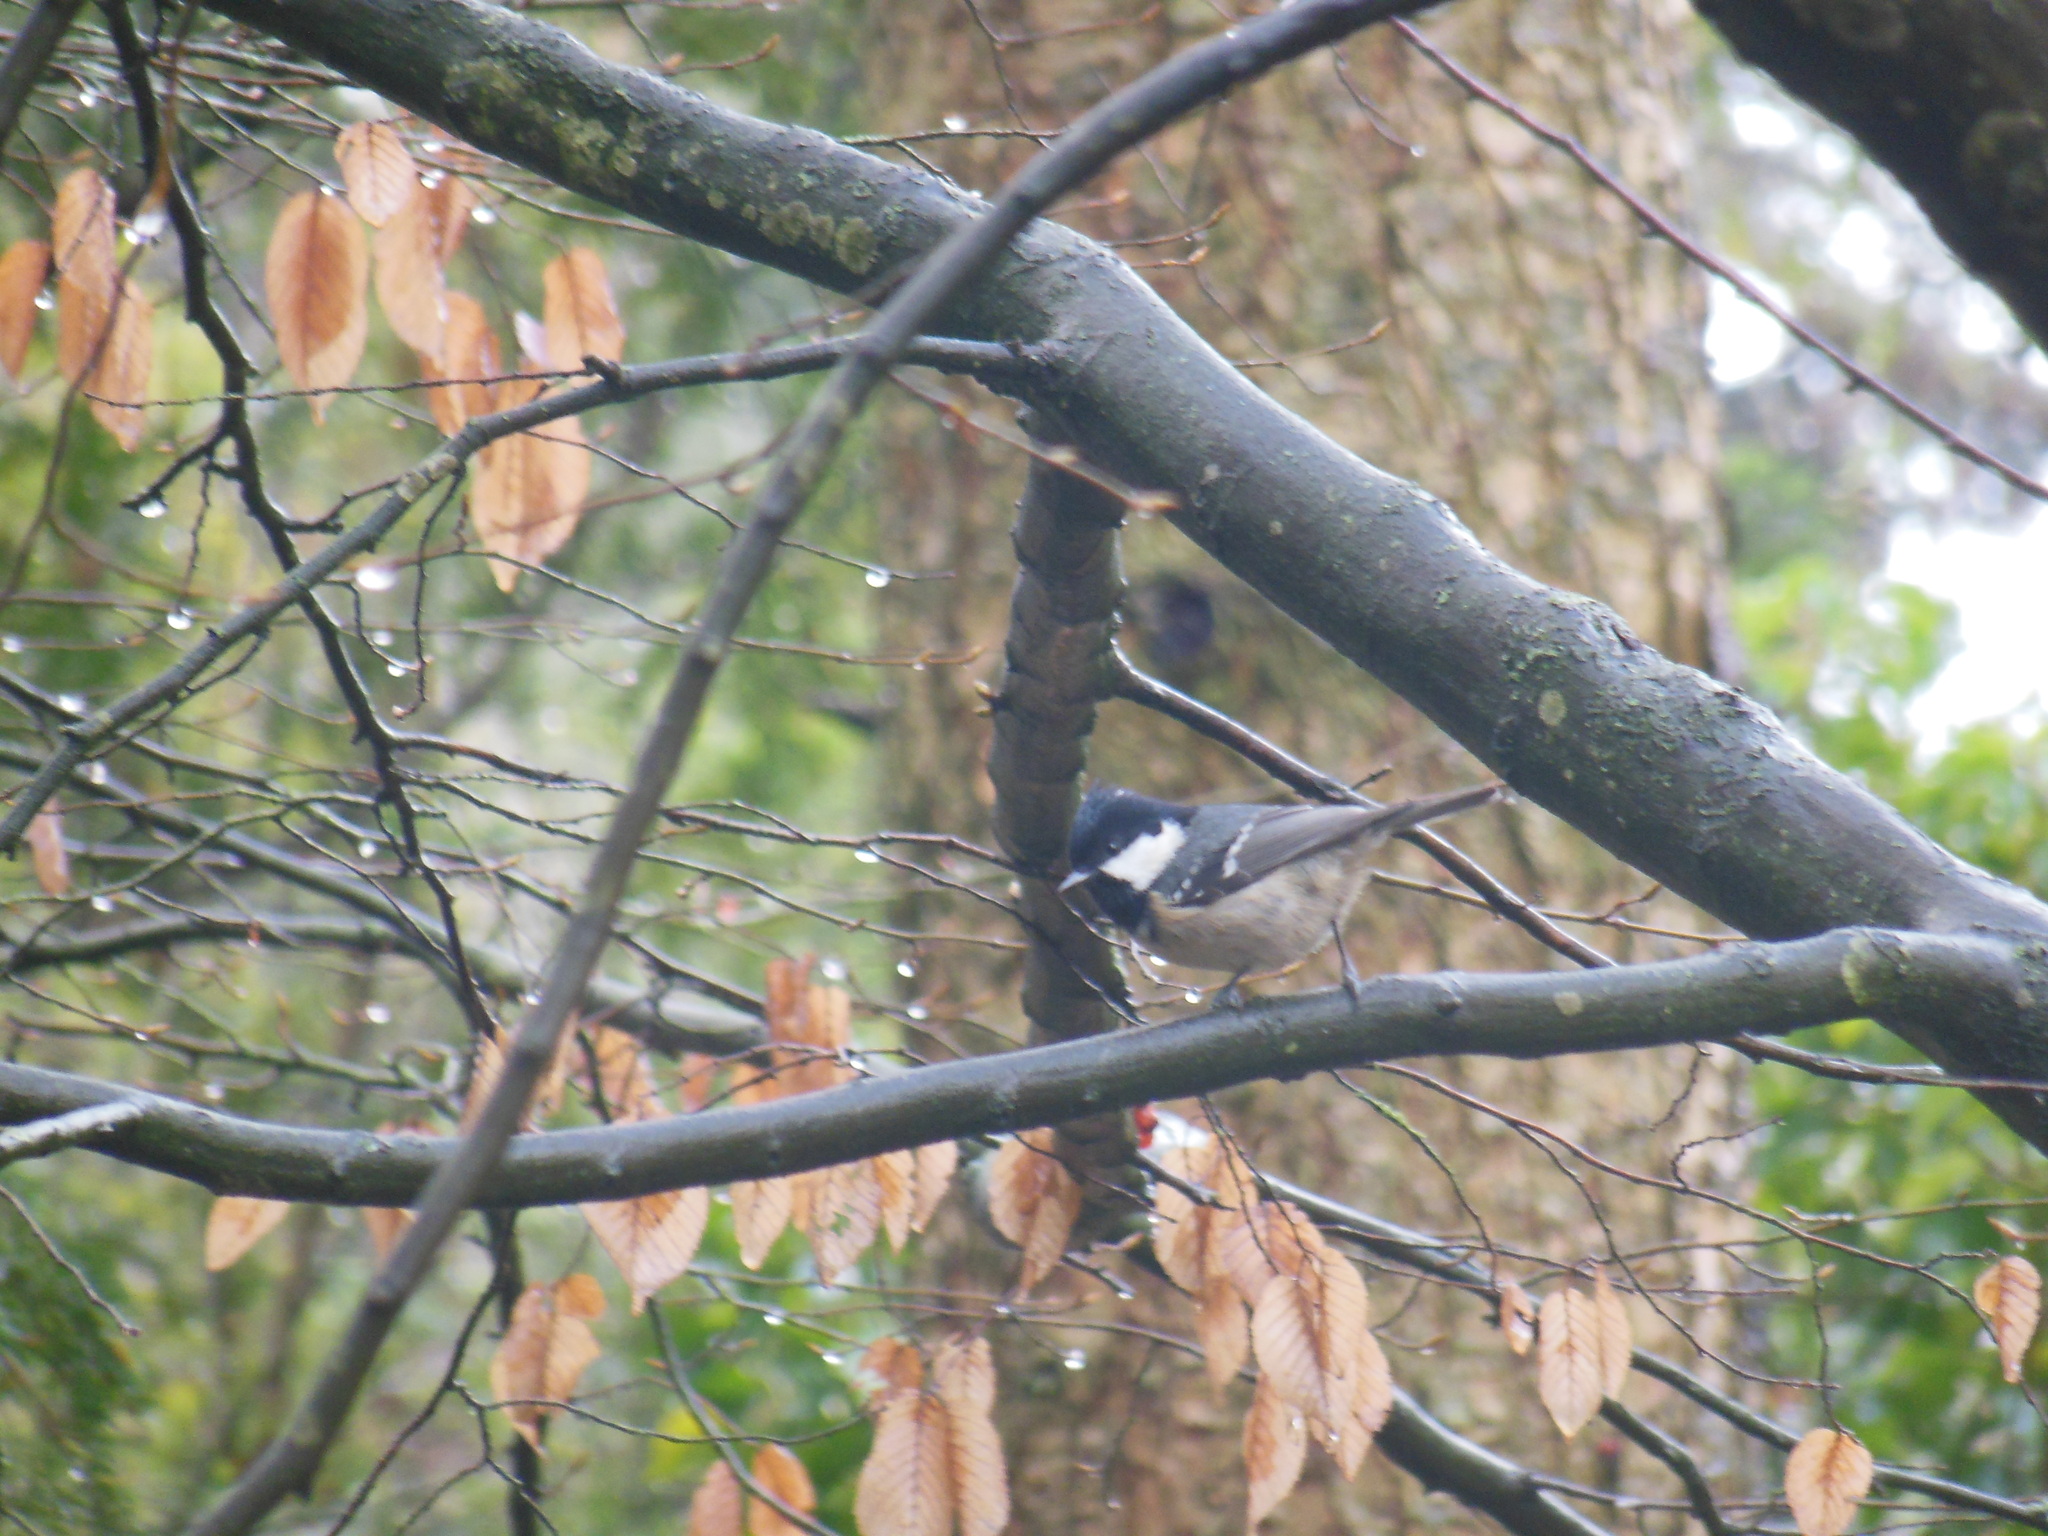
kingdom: Animalia
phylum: Chordata
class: Aves
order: Passeriformes
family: Paridae
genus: Periparus
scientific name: Periparus ater
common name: Coal tit
